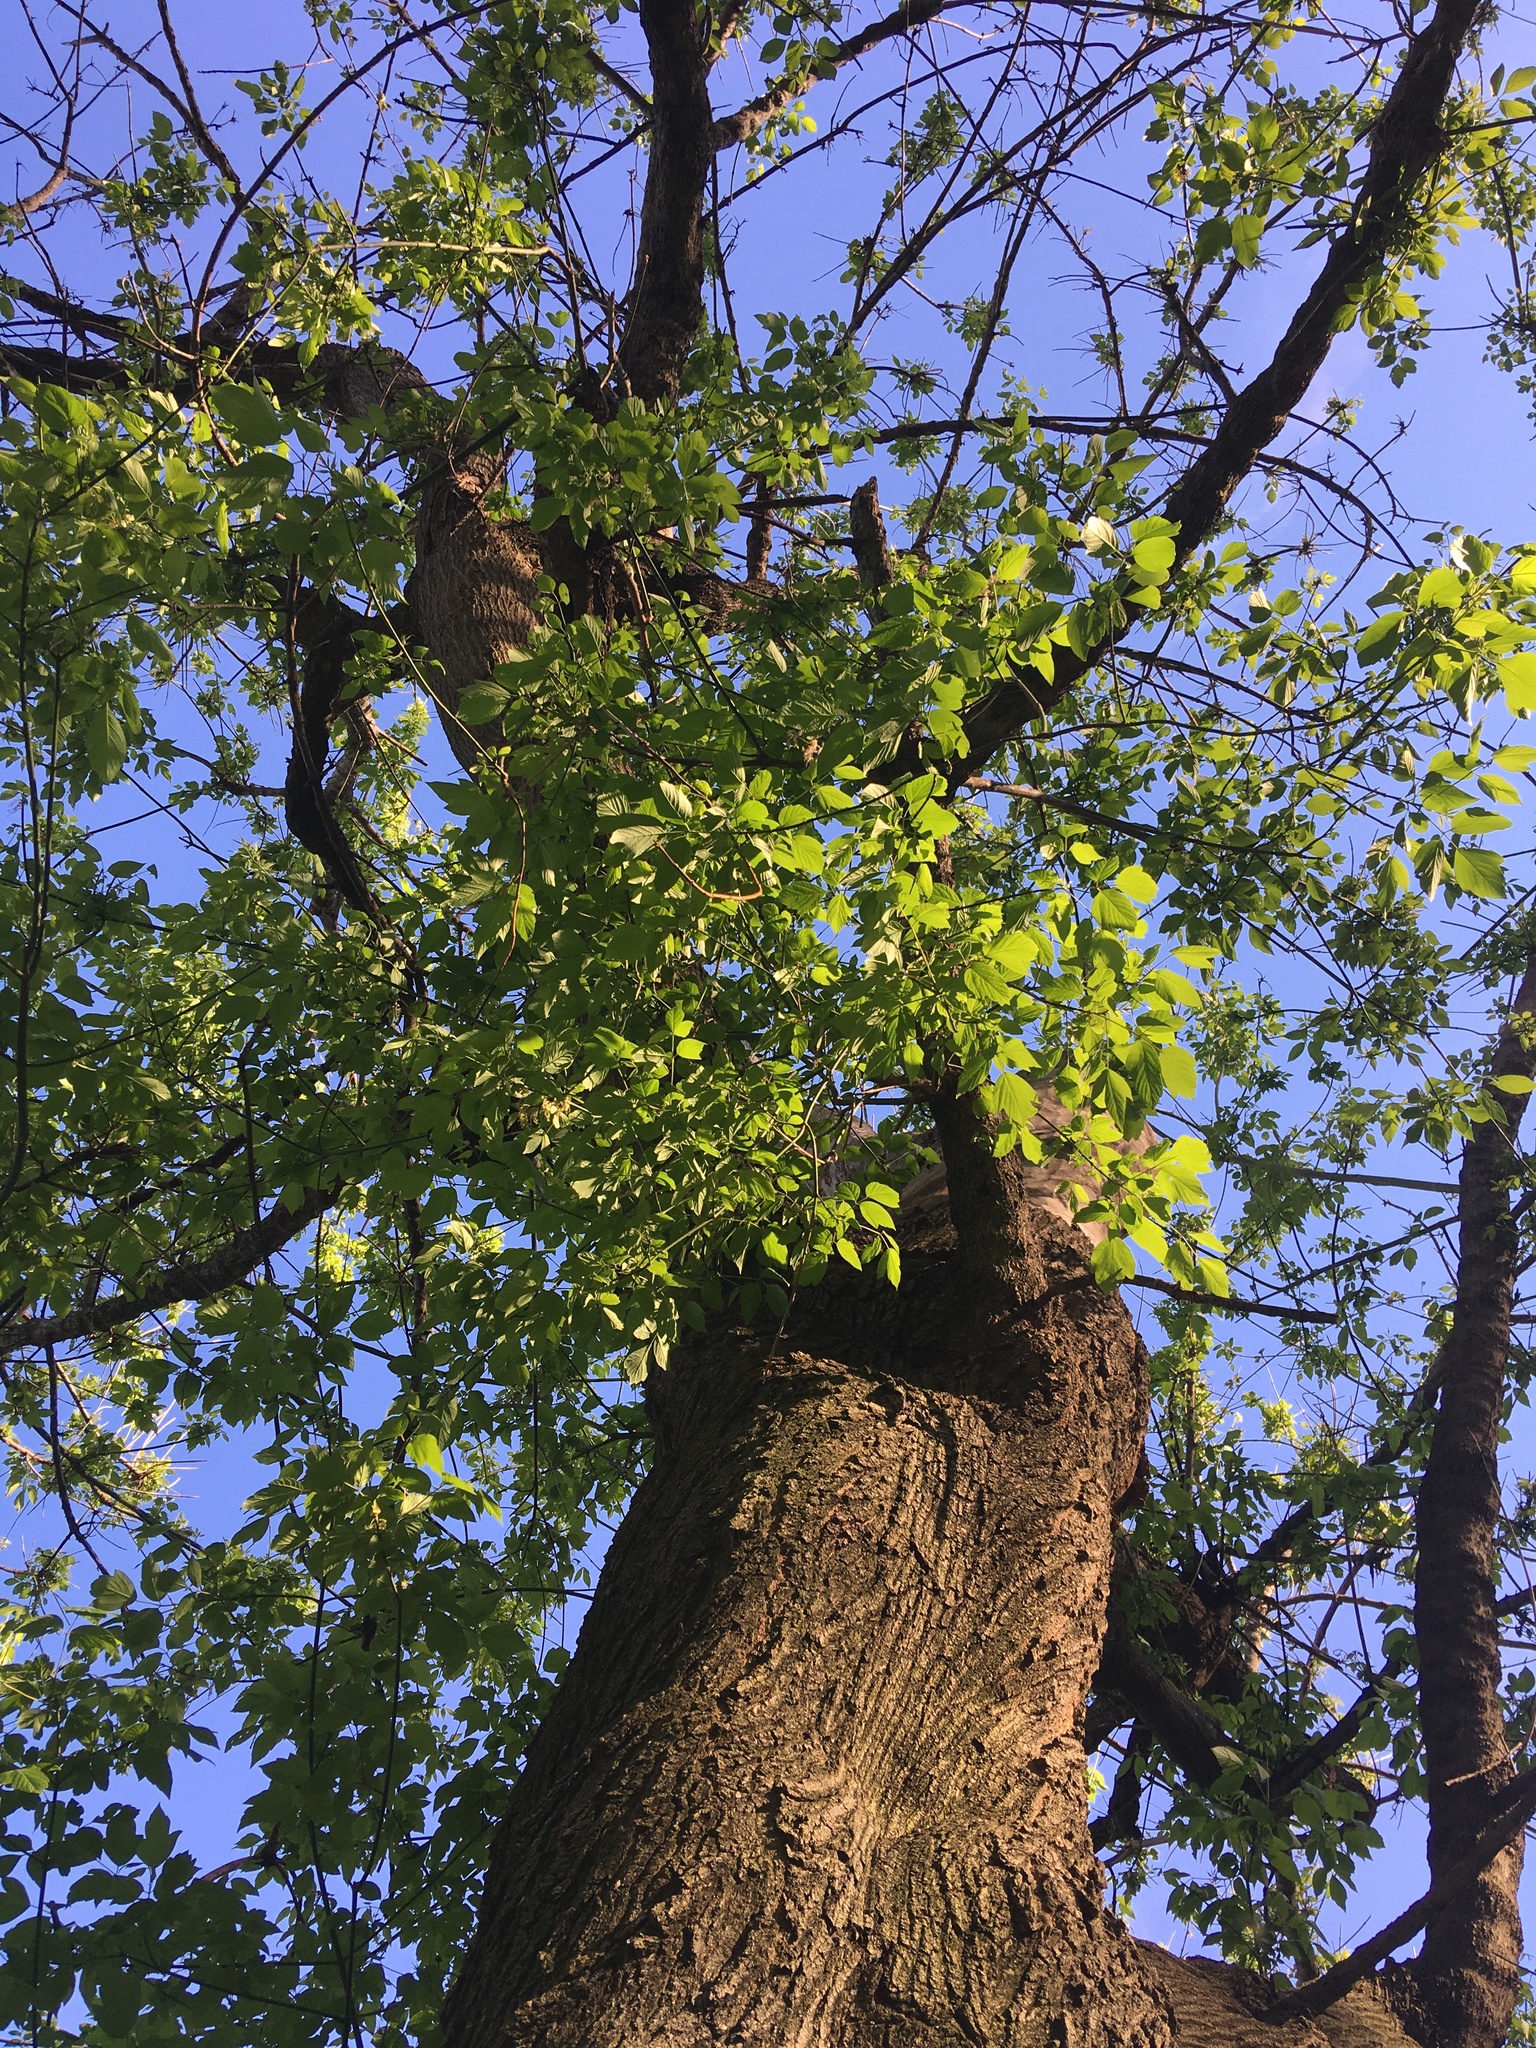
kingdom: Plantae
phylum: Tracheophyta
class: Magnoliopsida
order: Sapindales
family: Sapindaceae
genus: Acer
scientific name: Acer negundo
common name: Ashleaf maple
